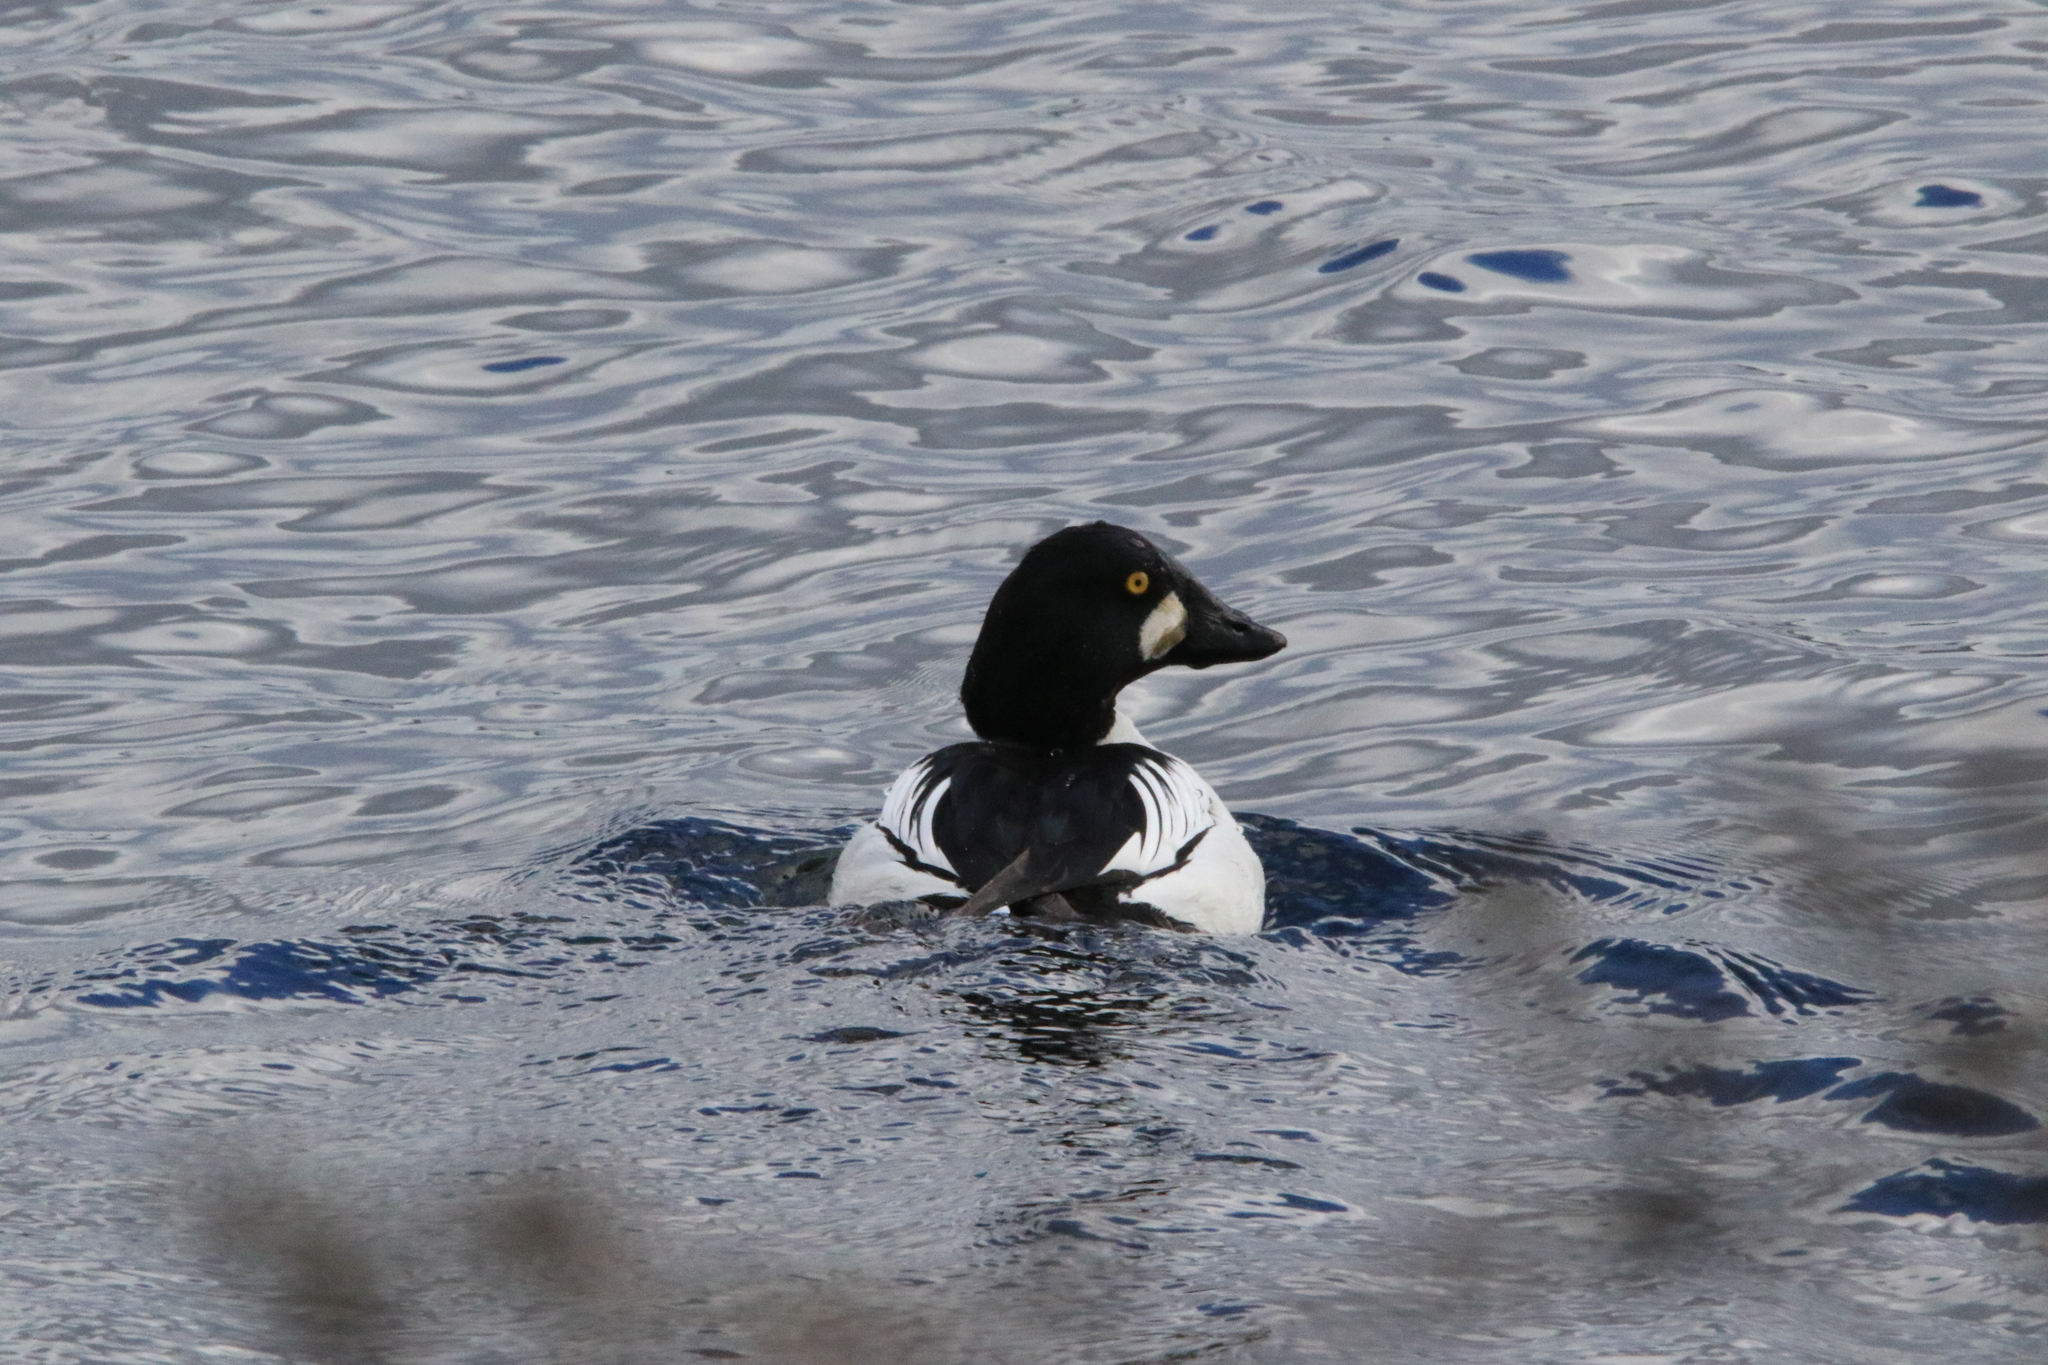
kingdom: Animalia
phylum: Chordata
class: Aves
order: Anseriformes
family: Anatidae
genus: Bucephala
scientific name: Bucephala clangula
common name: Common goldeneye
